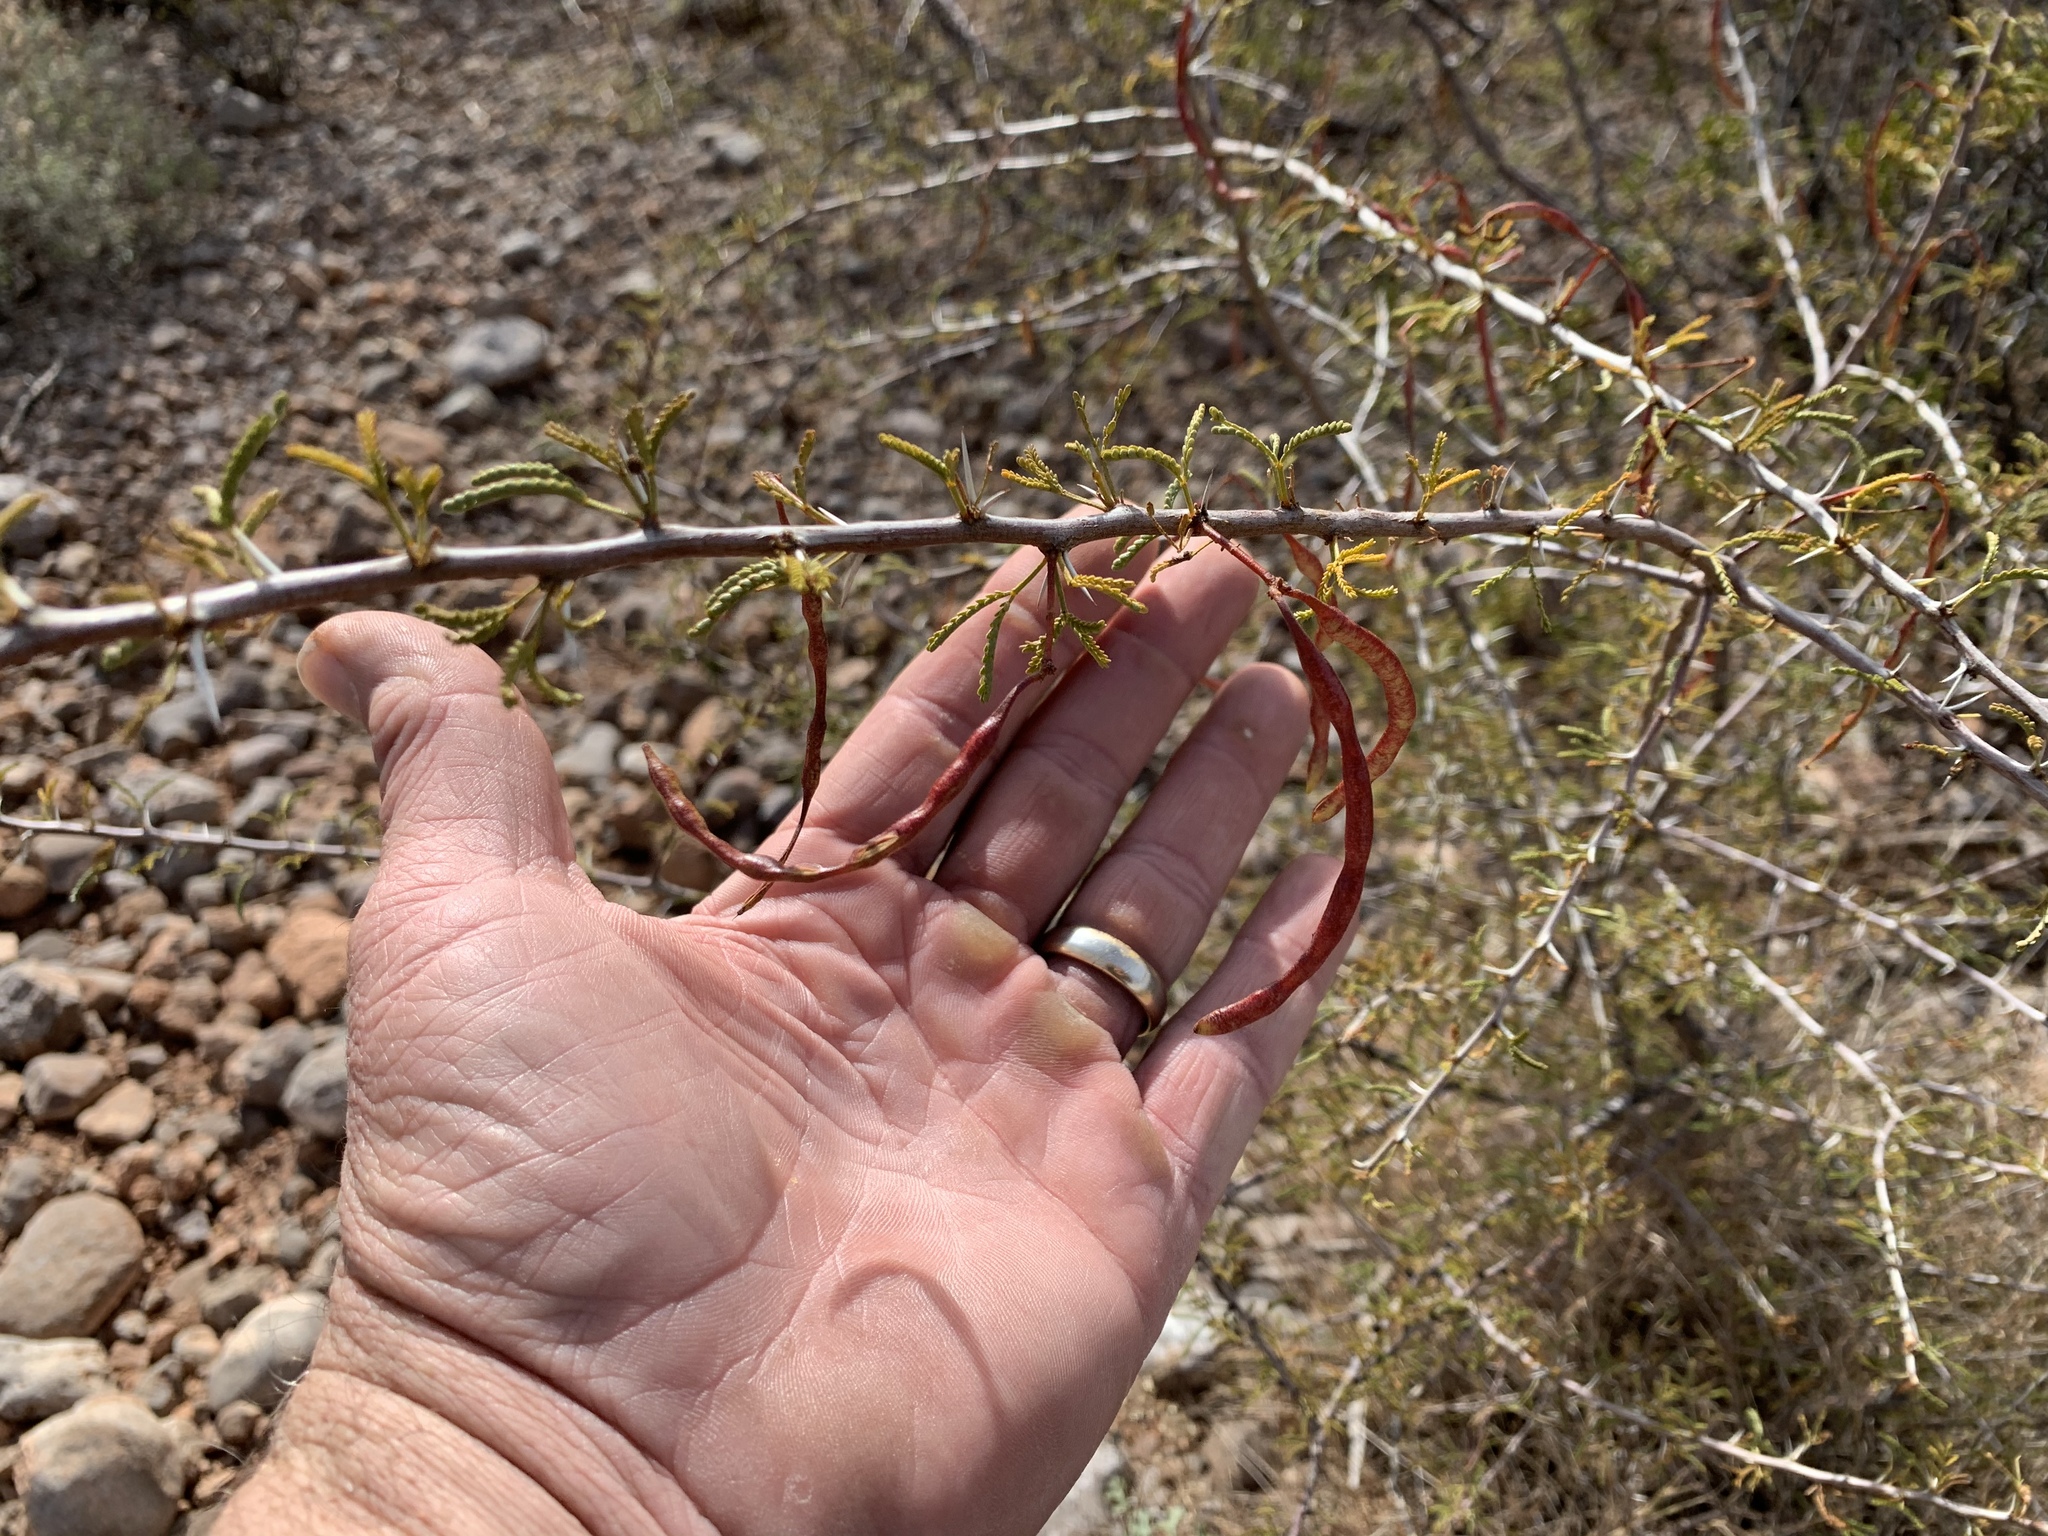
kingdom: Plantae
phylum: Tracheophyta
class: Magnoliopsida
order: Fabales
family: Fabaceae
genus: Vachellia
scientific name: Vachellia constricta
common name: Mescat acacia
